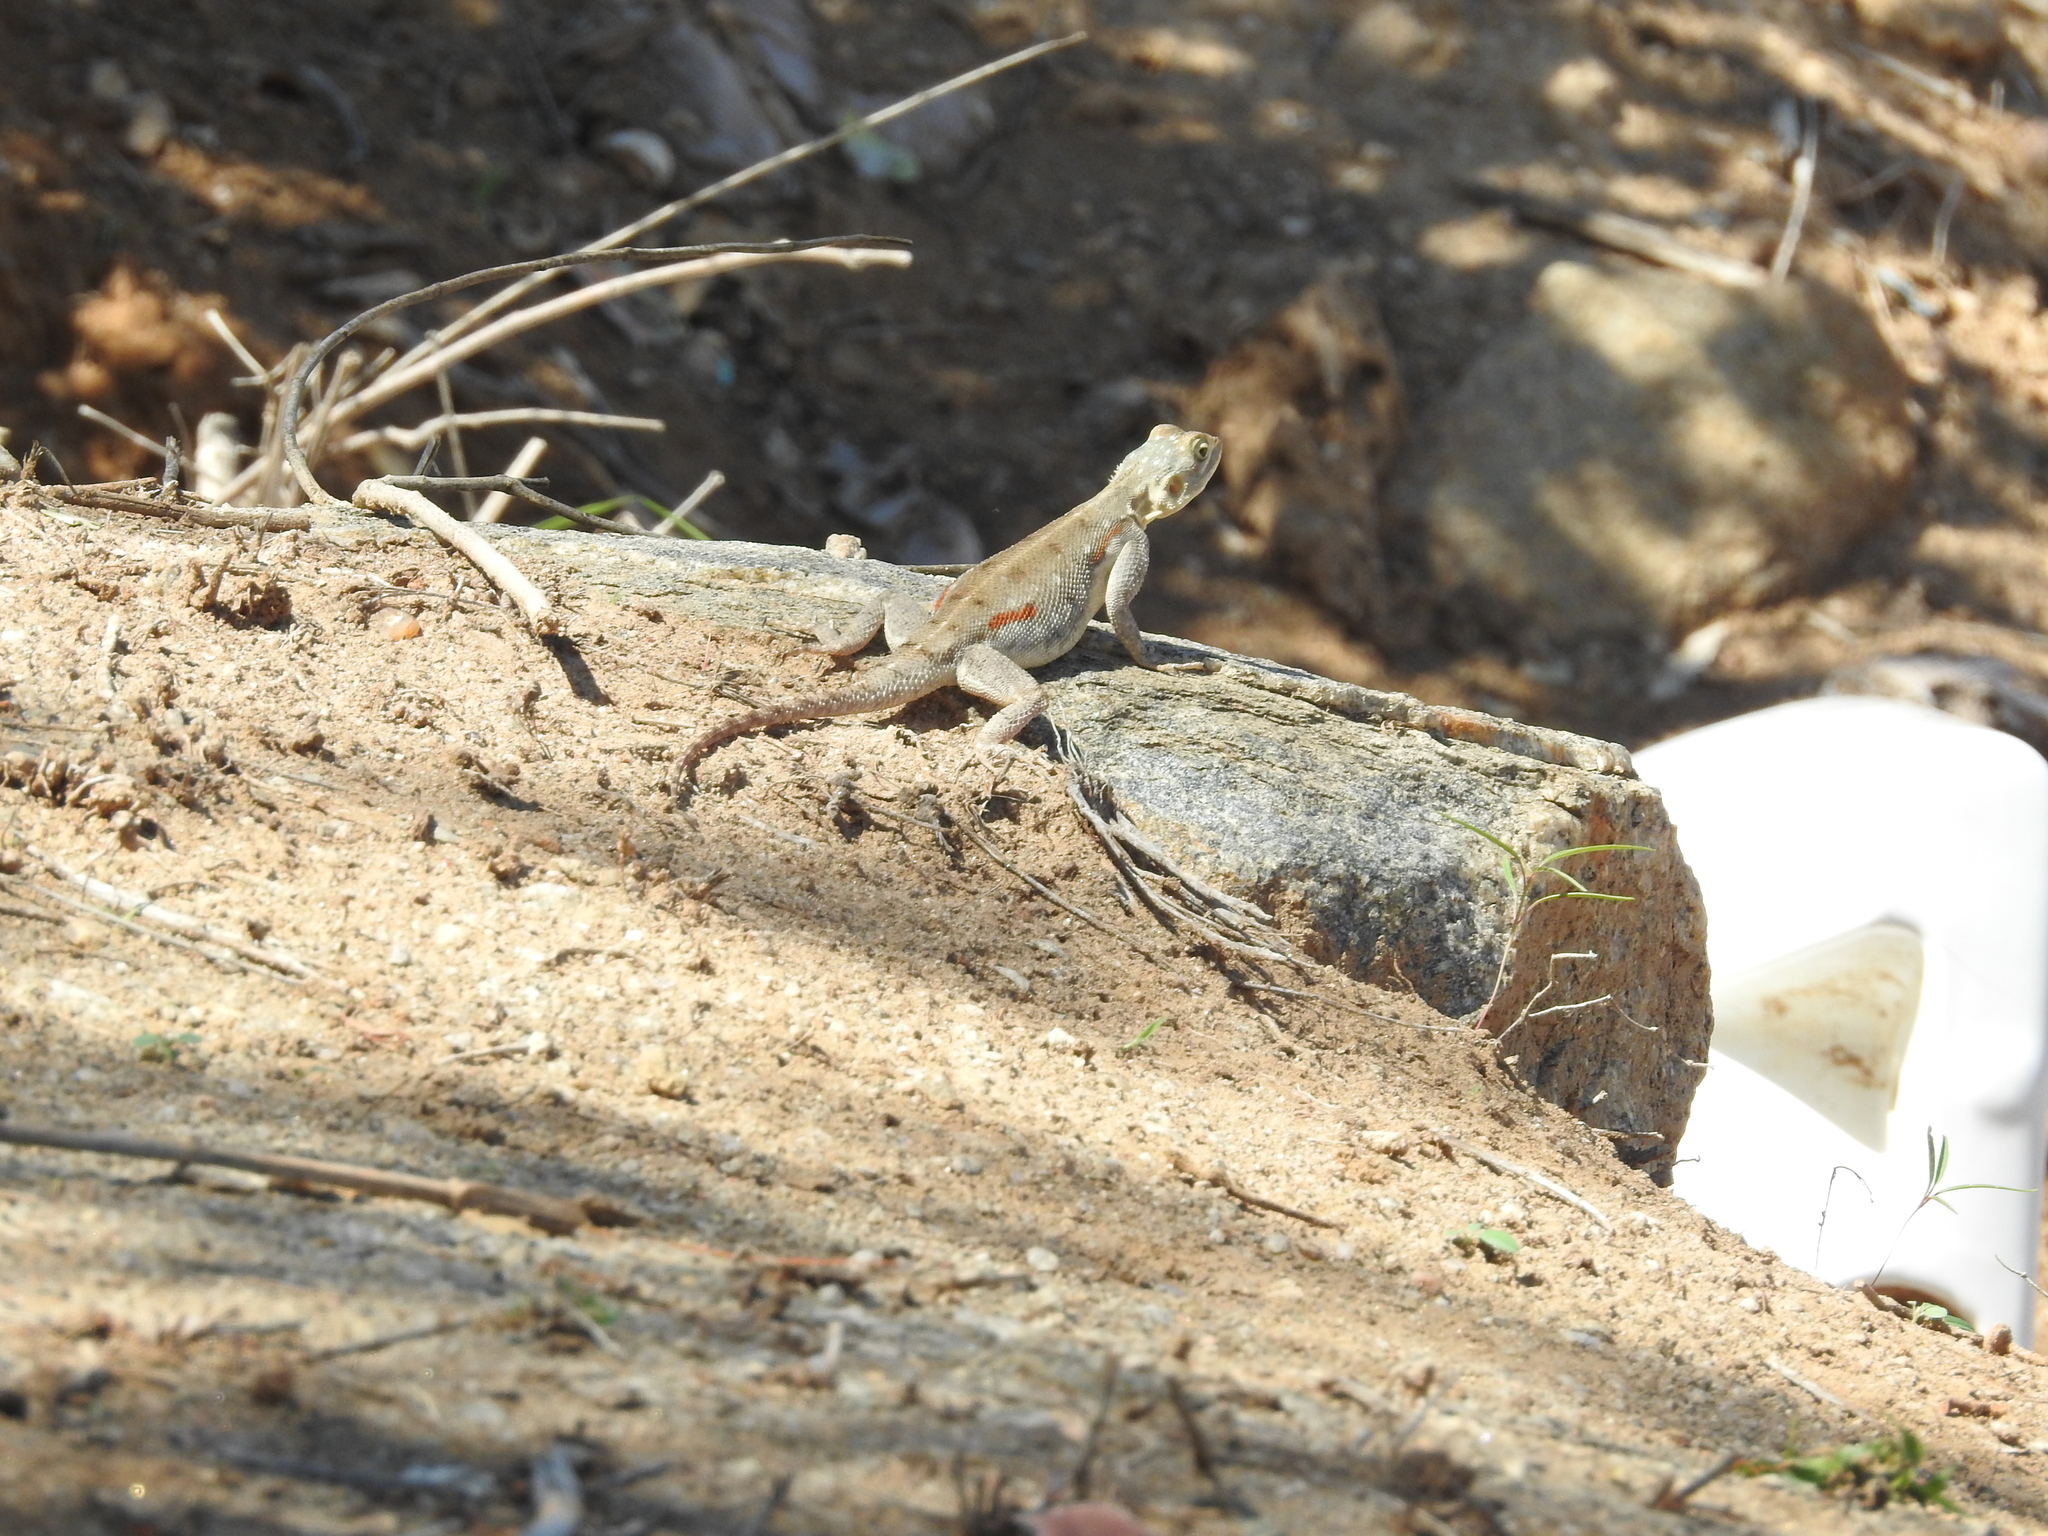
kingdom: Animalia
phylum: Chordata
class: Squamata
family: Agamidae
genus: Agama
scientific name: Agama lionotus
